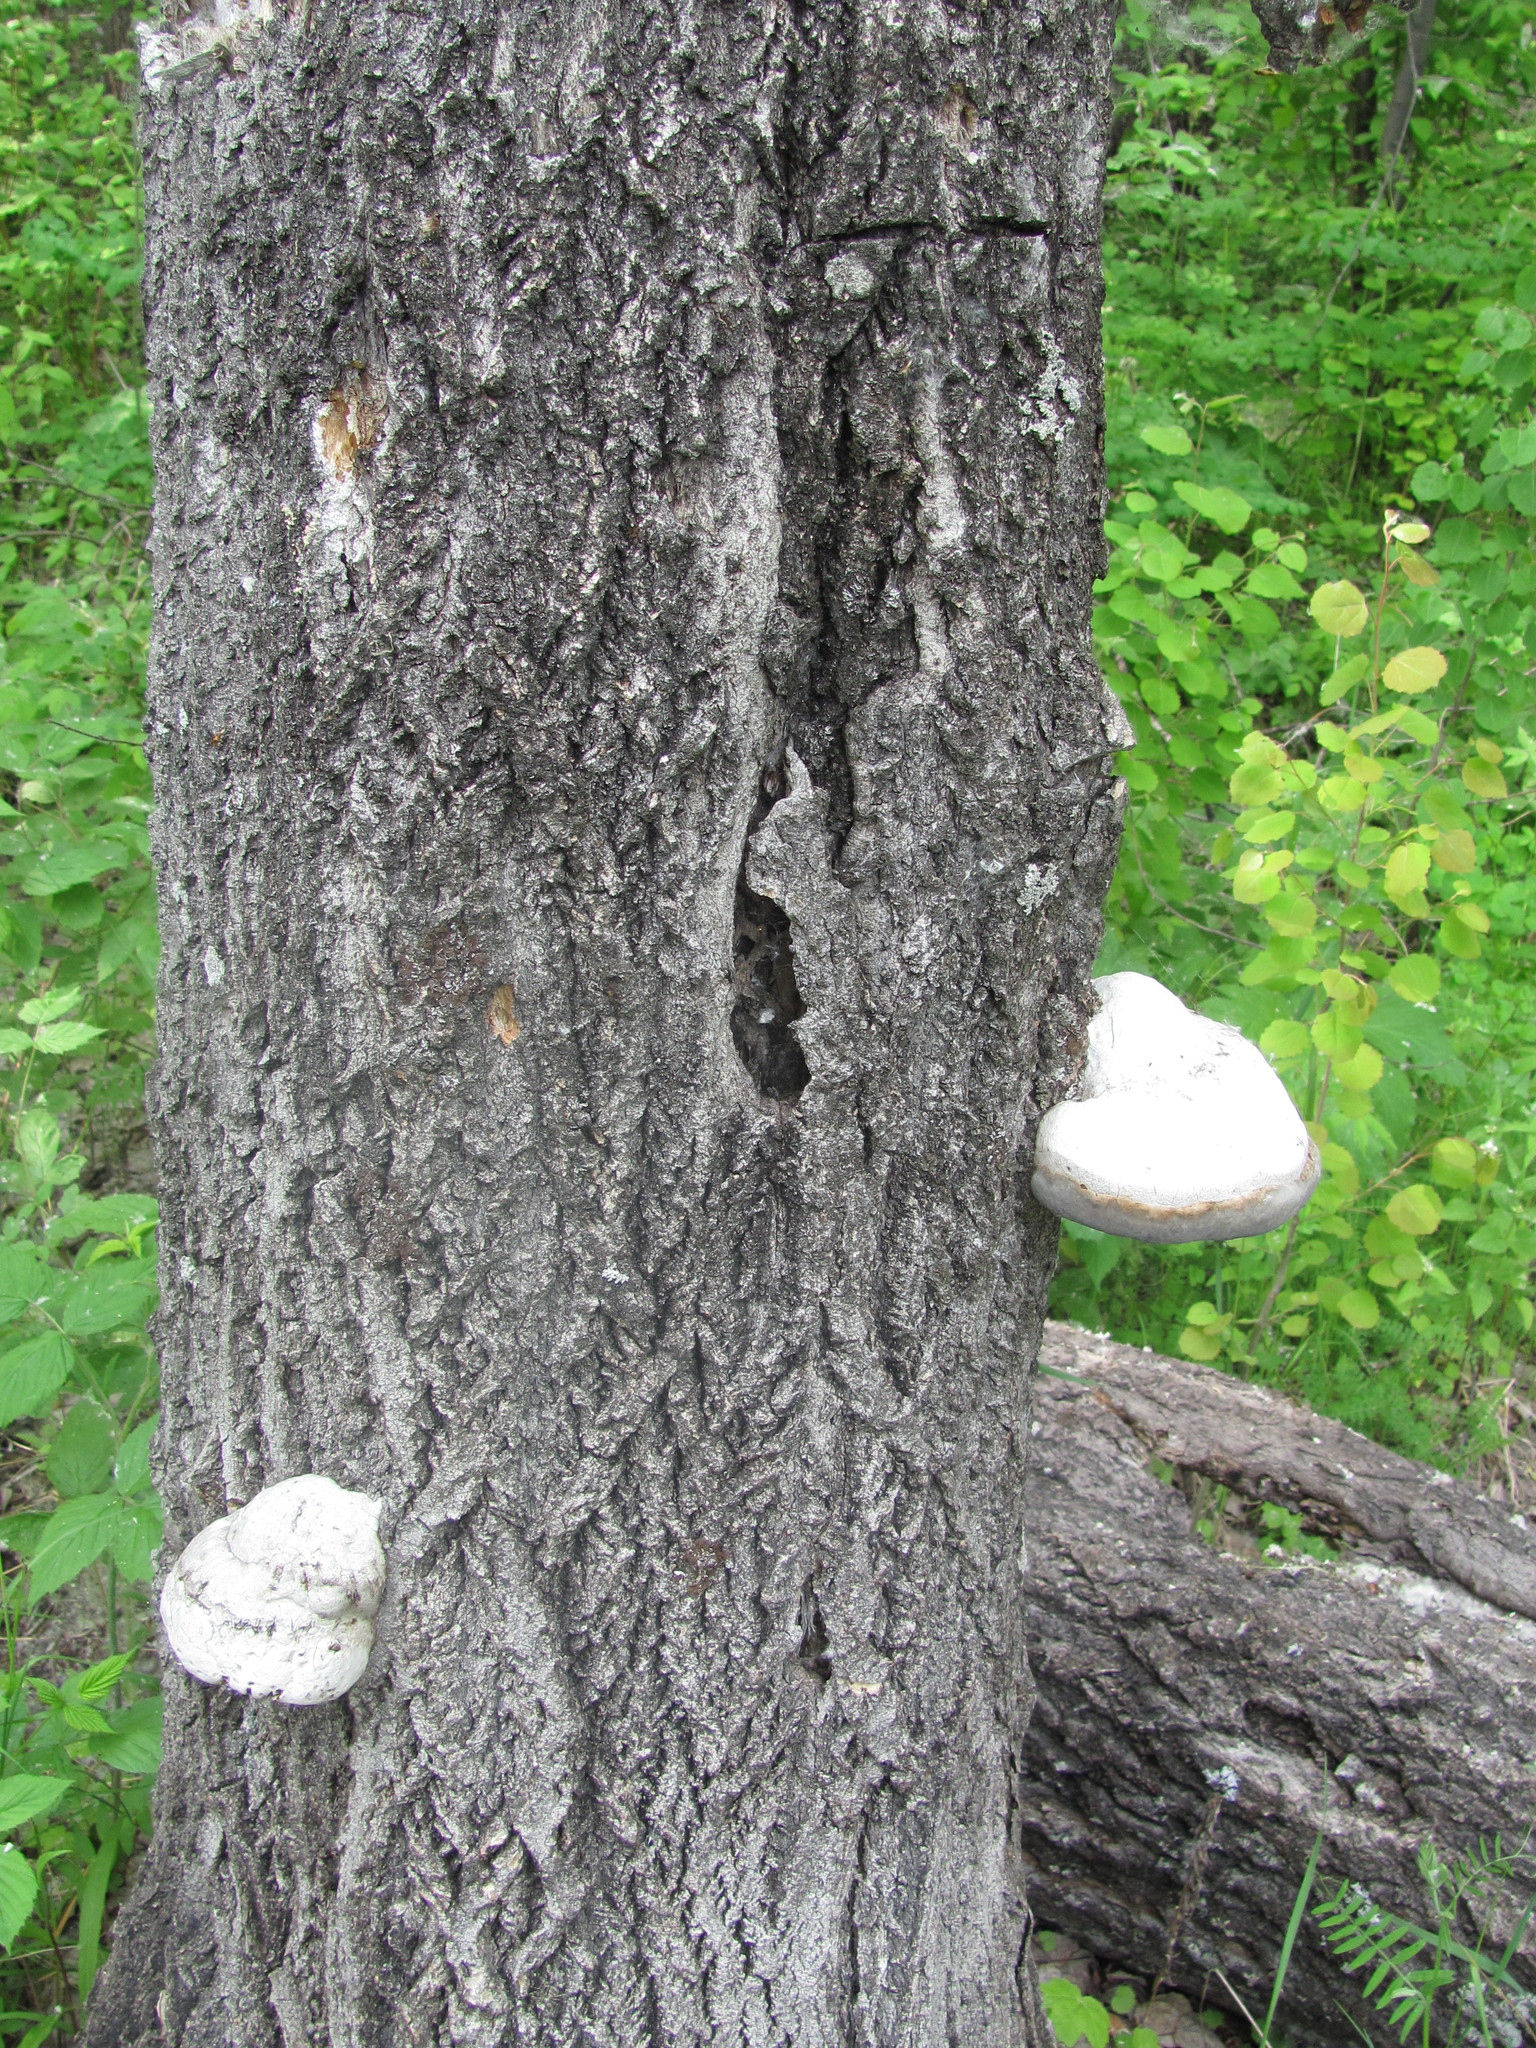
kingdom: Fungi
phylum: Basidiomycota
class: Agaricomycetes
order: Polyporales
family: Polyporaceae
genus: Fomes
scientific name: Fomes fomentarius
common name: Hoof fungus
